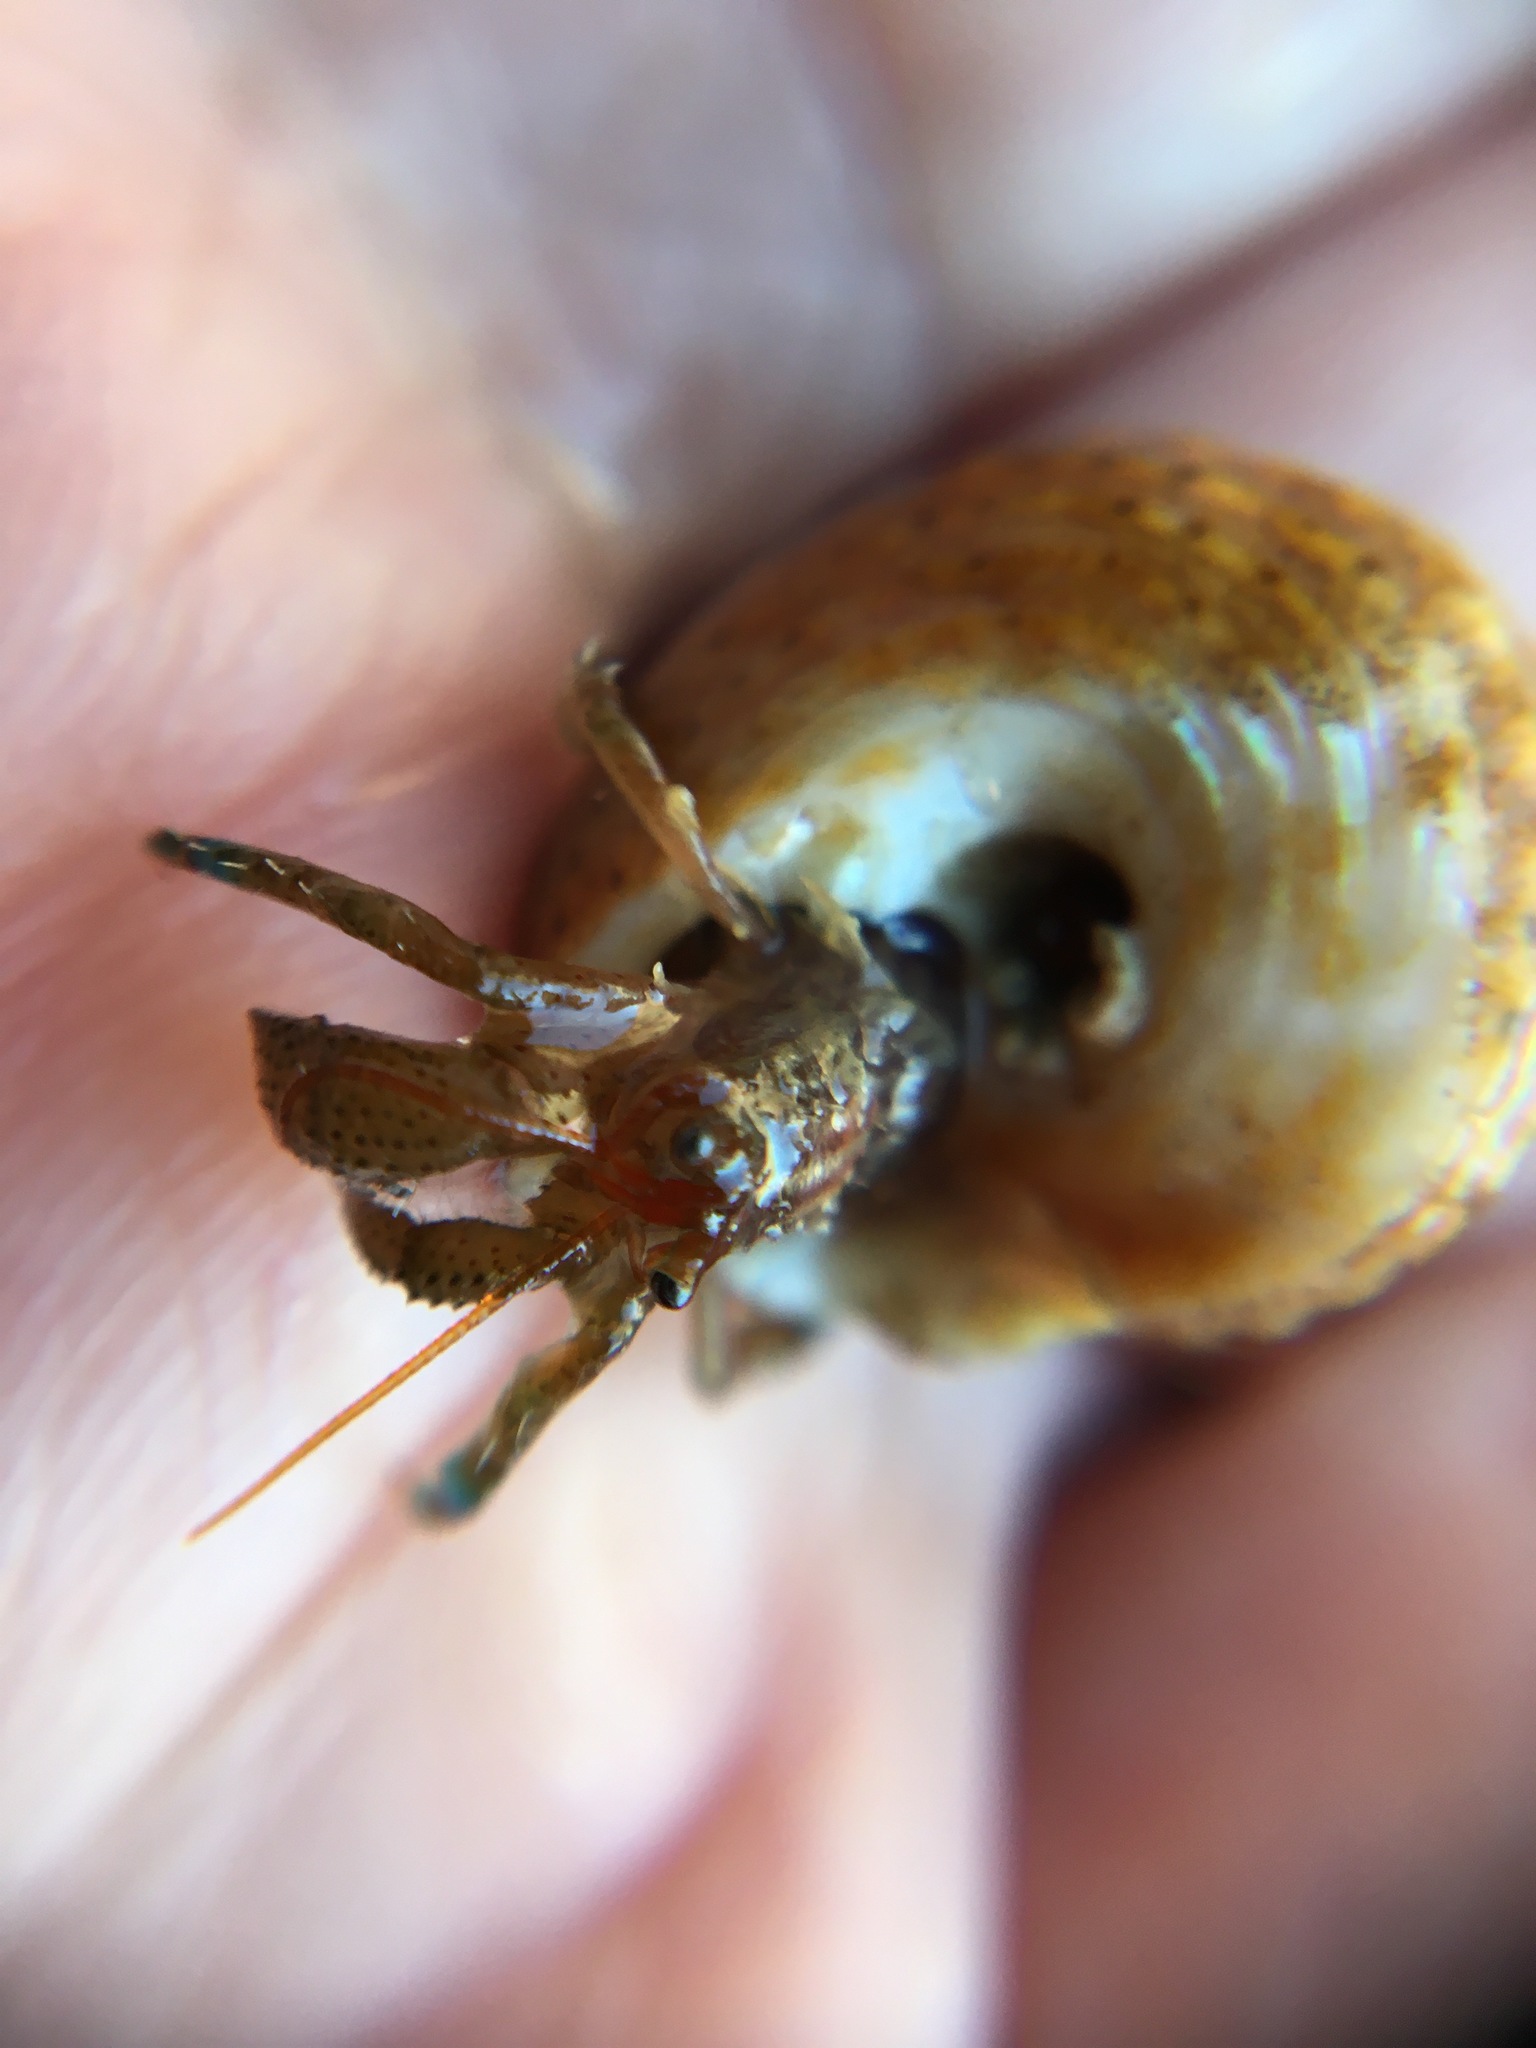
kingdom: Animalia
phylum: Arthropoda
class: Malacostraca
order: Decapoda
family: Paguridae
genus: Pagurus
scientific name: Pagurus samuelis
